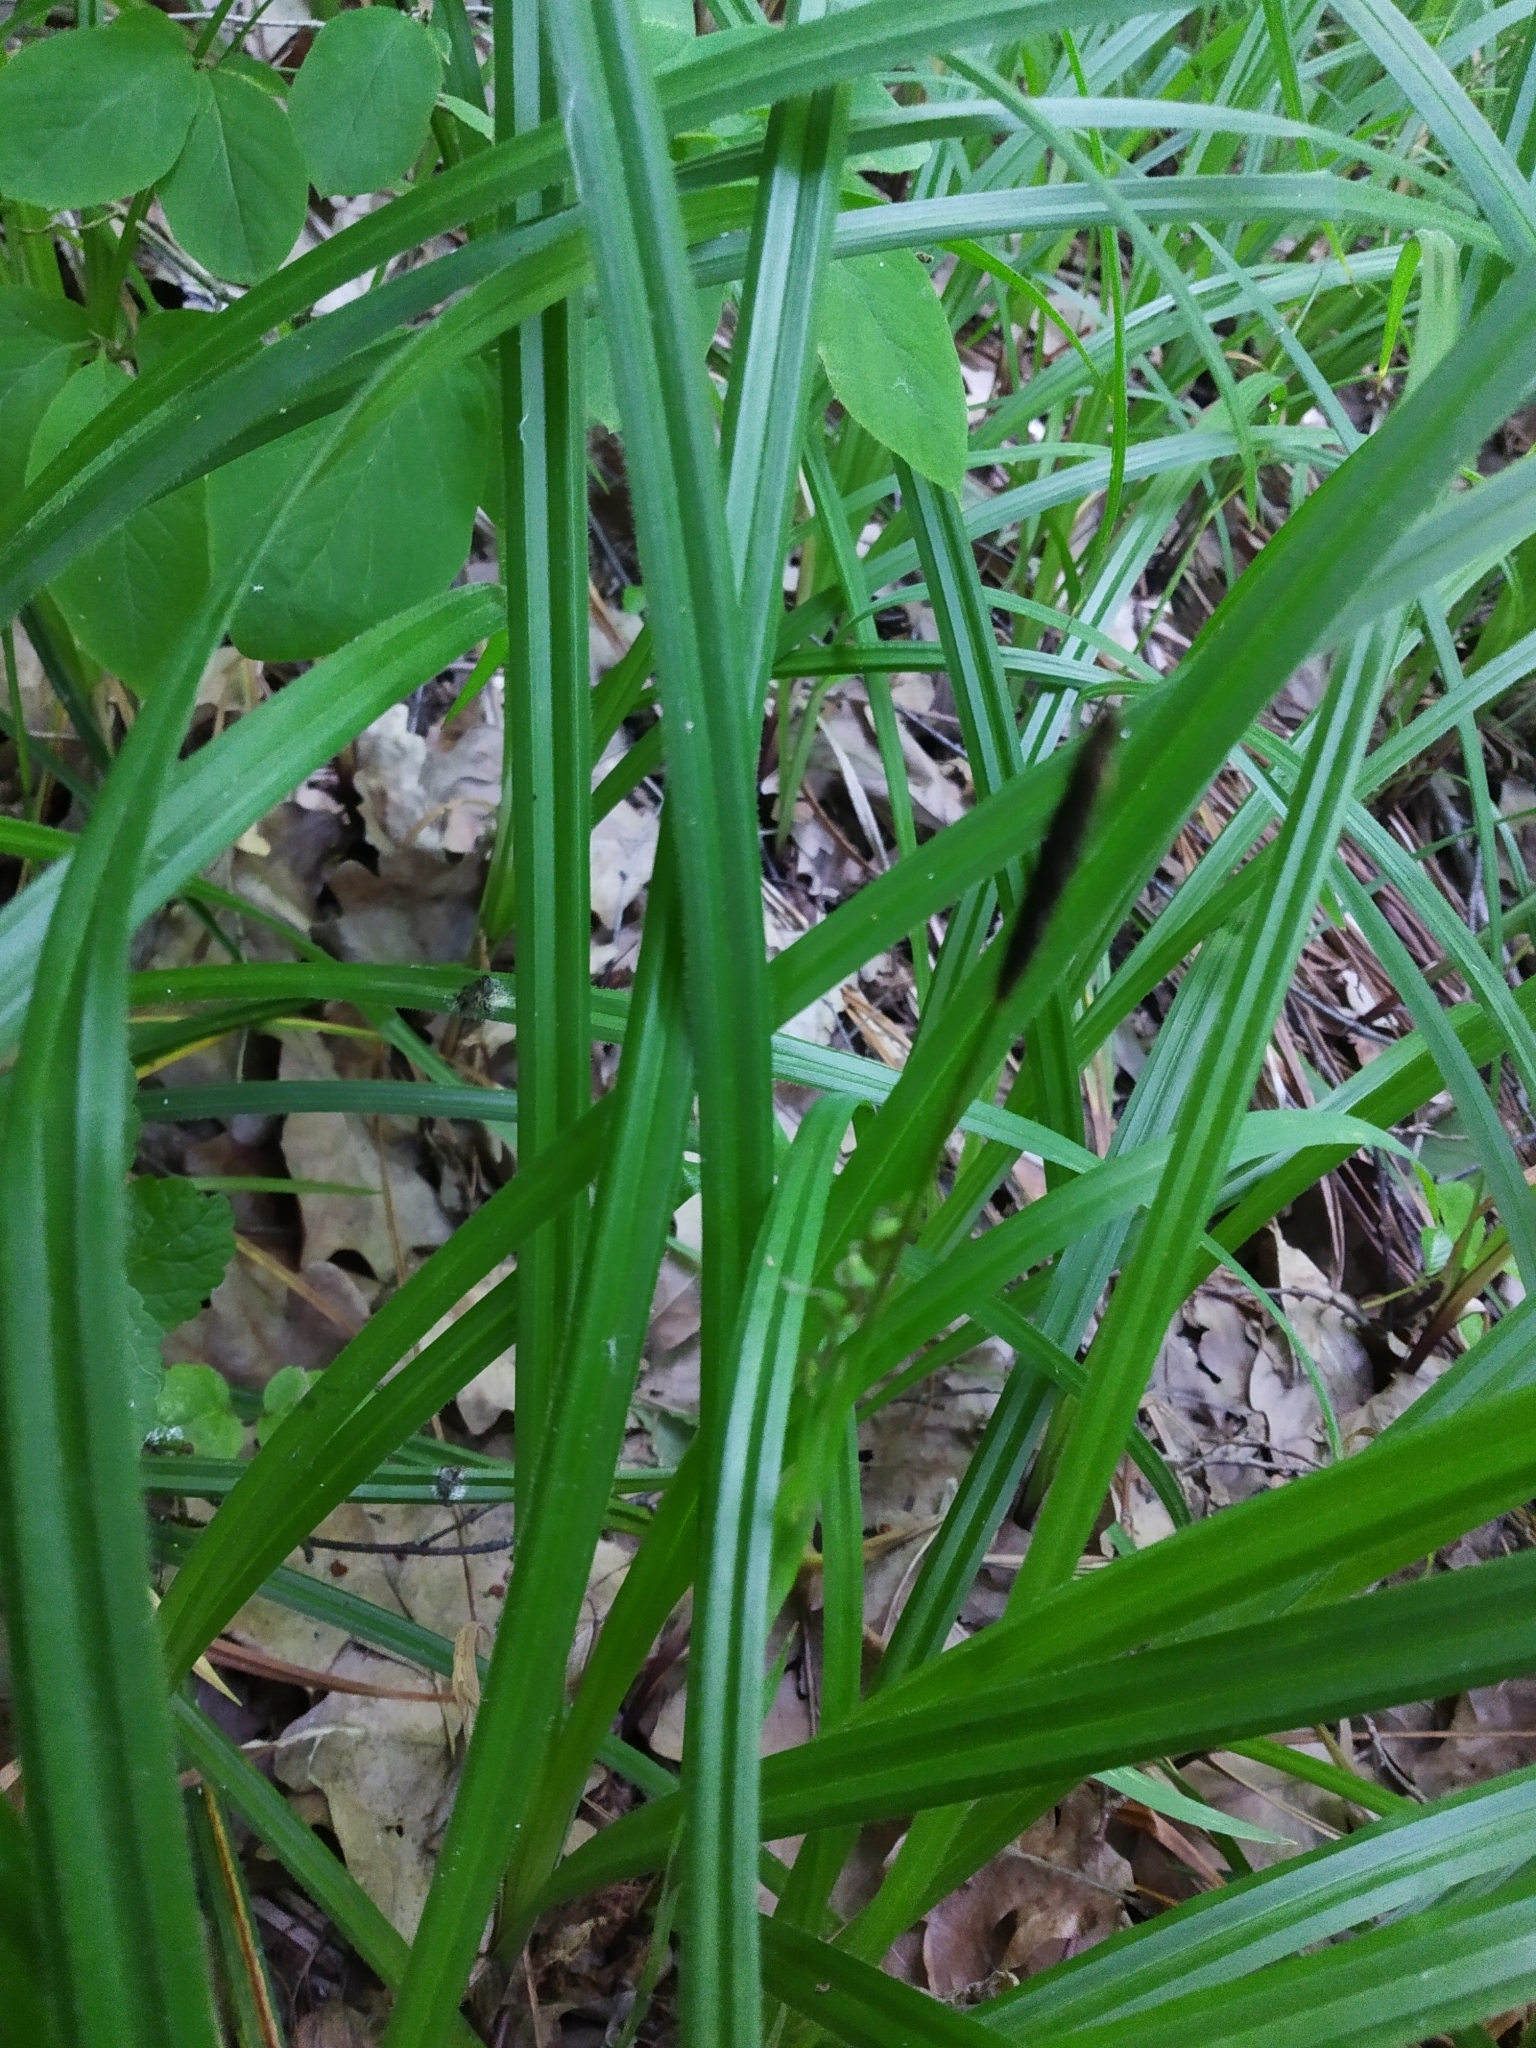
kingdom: Plantae
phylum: Tracheophyta
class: Liliopsida
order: Poales
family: Cyperaceae
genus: Carex
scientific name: Carex pilosa
